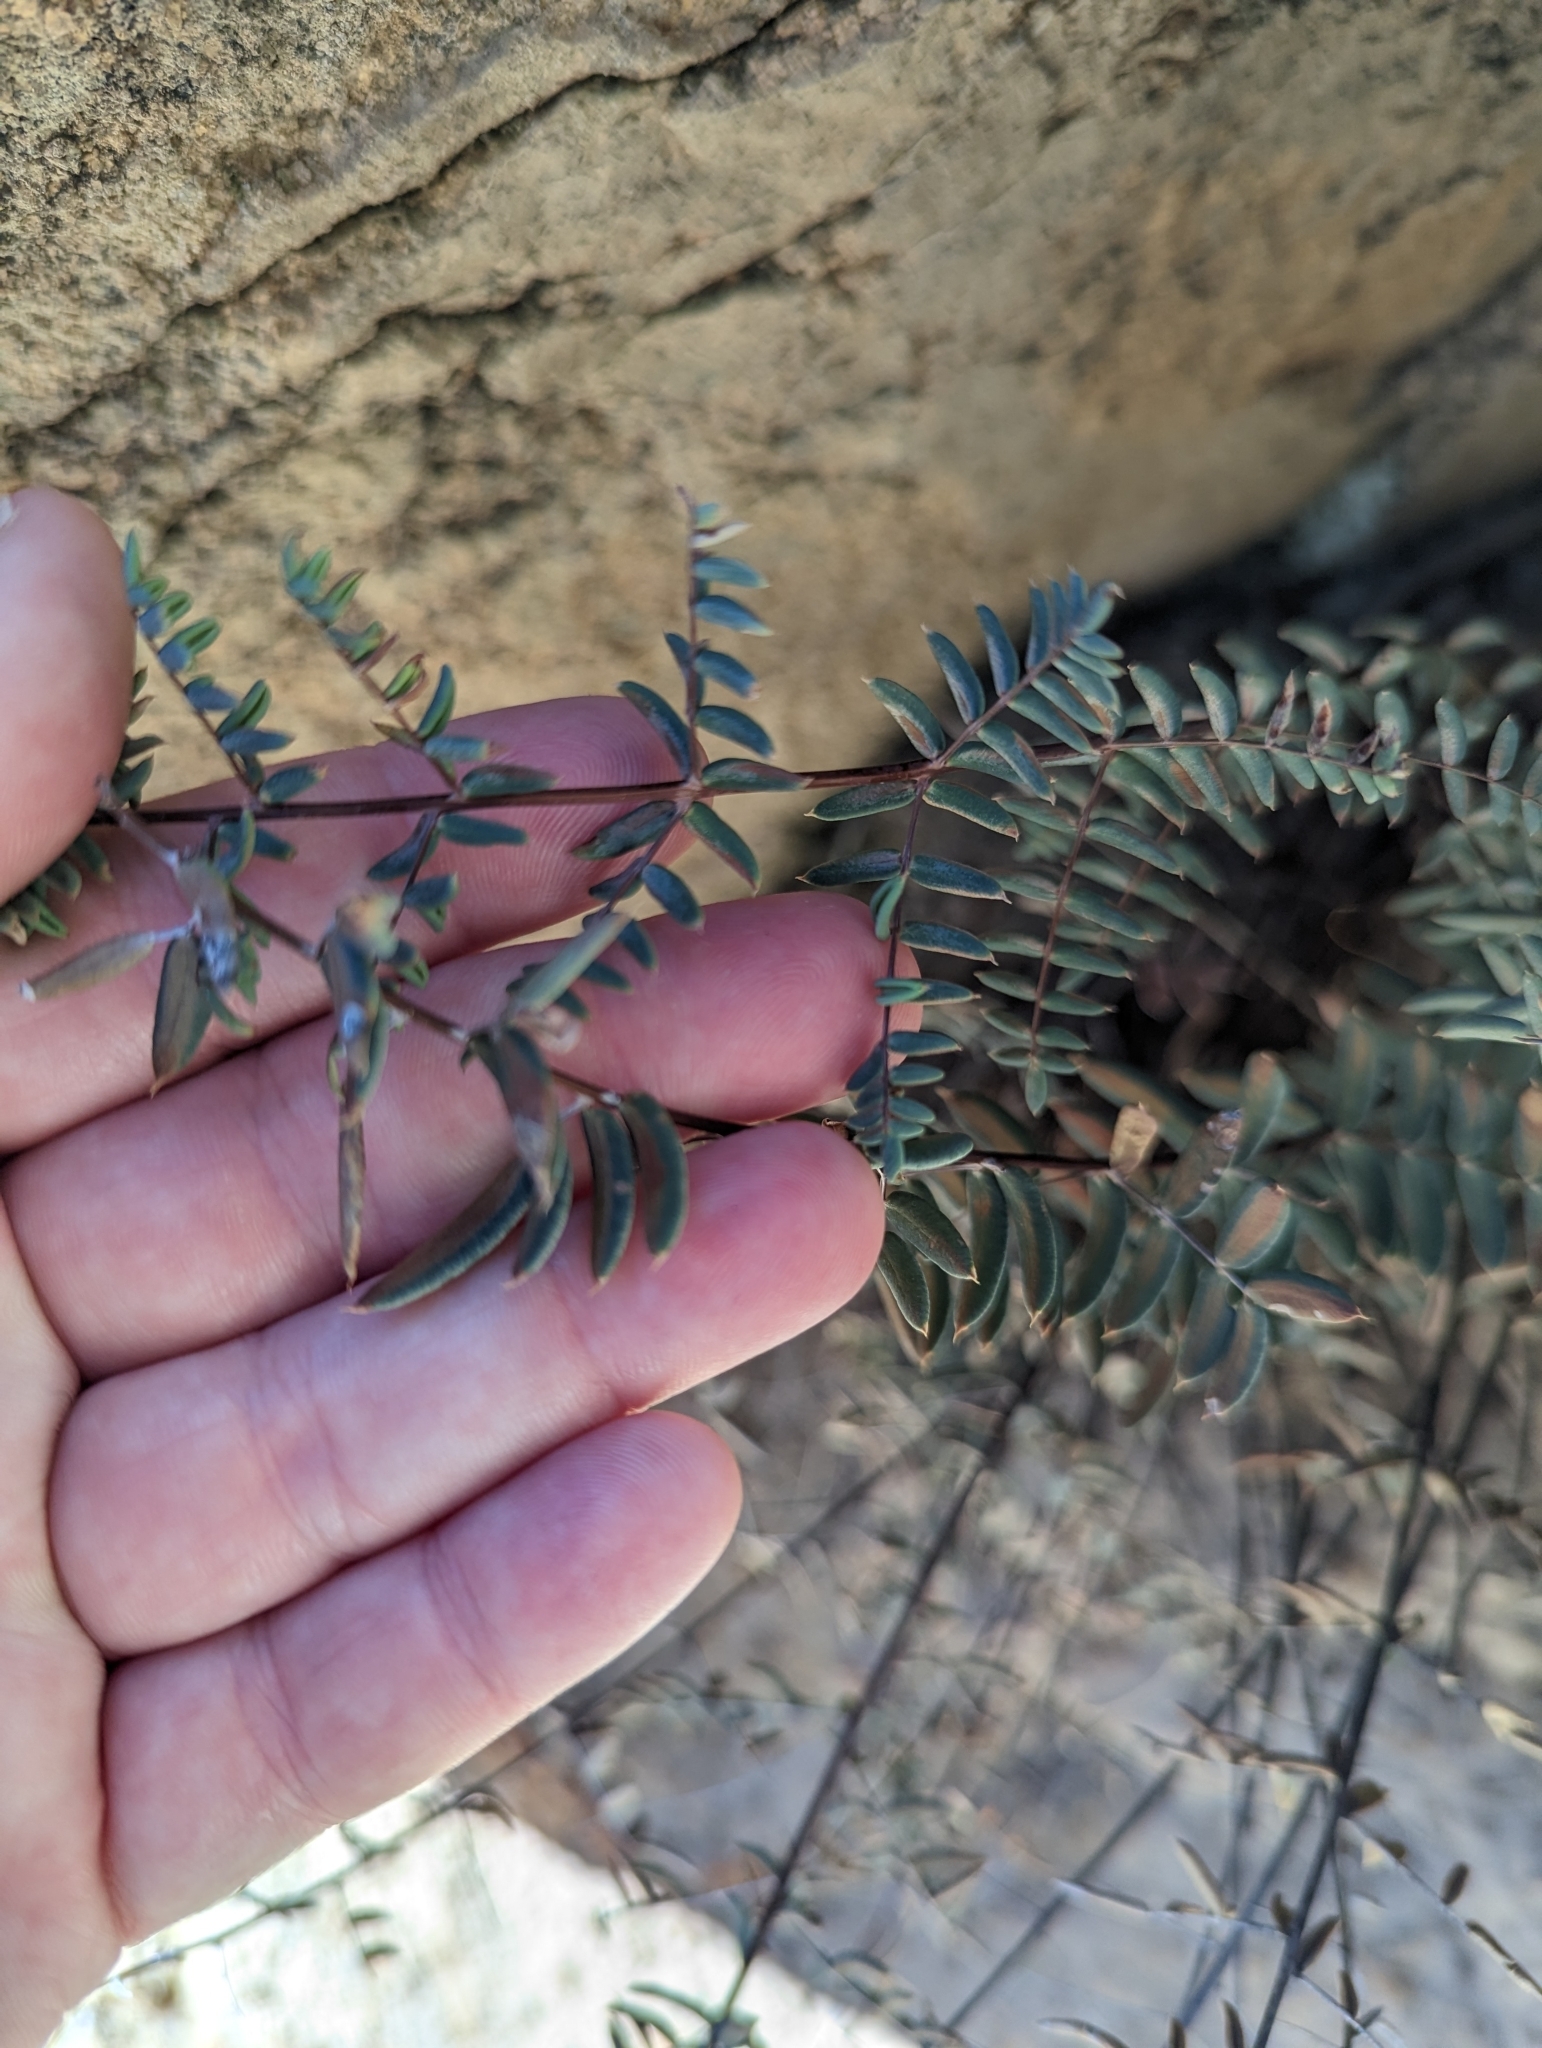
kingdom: Plantae
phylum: Tracheophyta
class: Polypodiopsida
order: Polypodiales
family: Pteridaceae
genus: Pellaea
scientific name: Pellaea truncata
